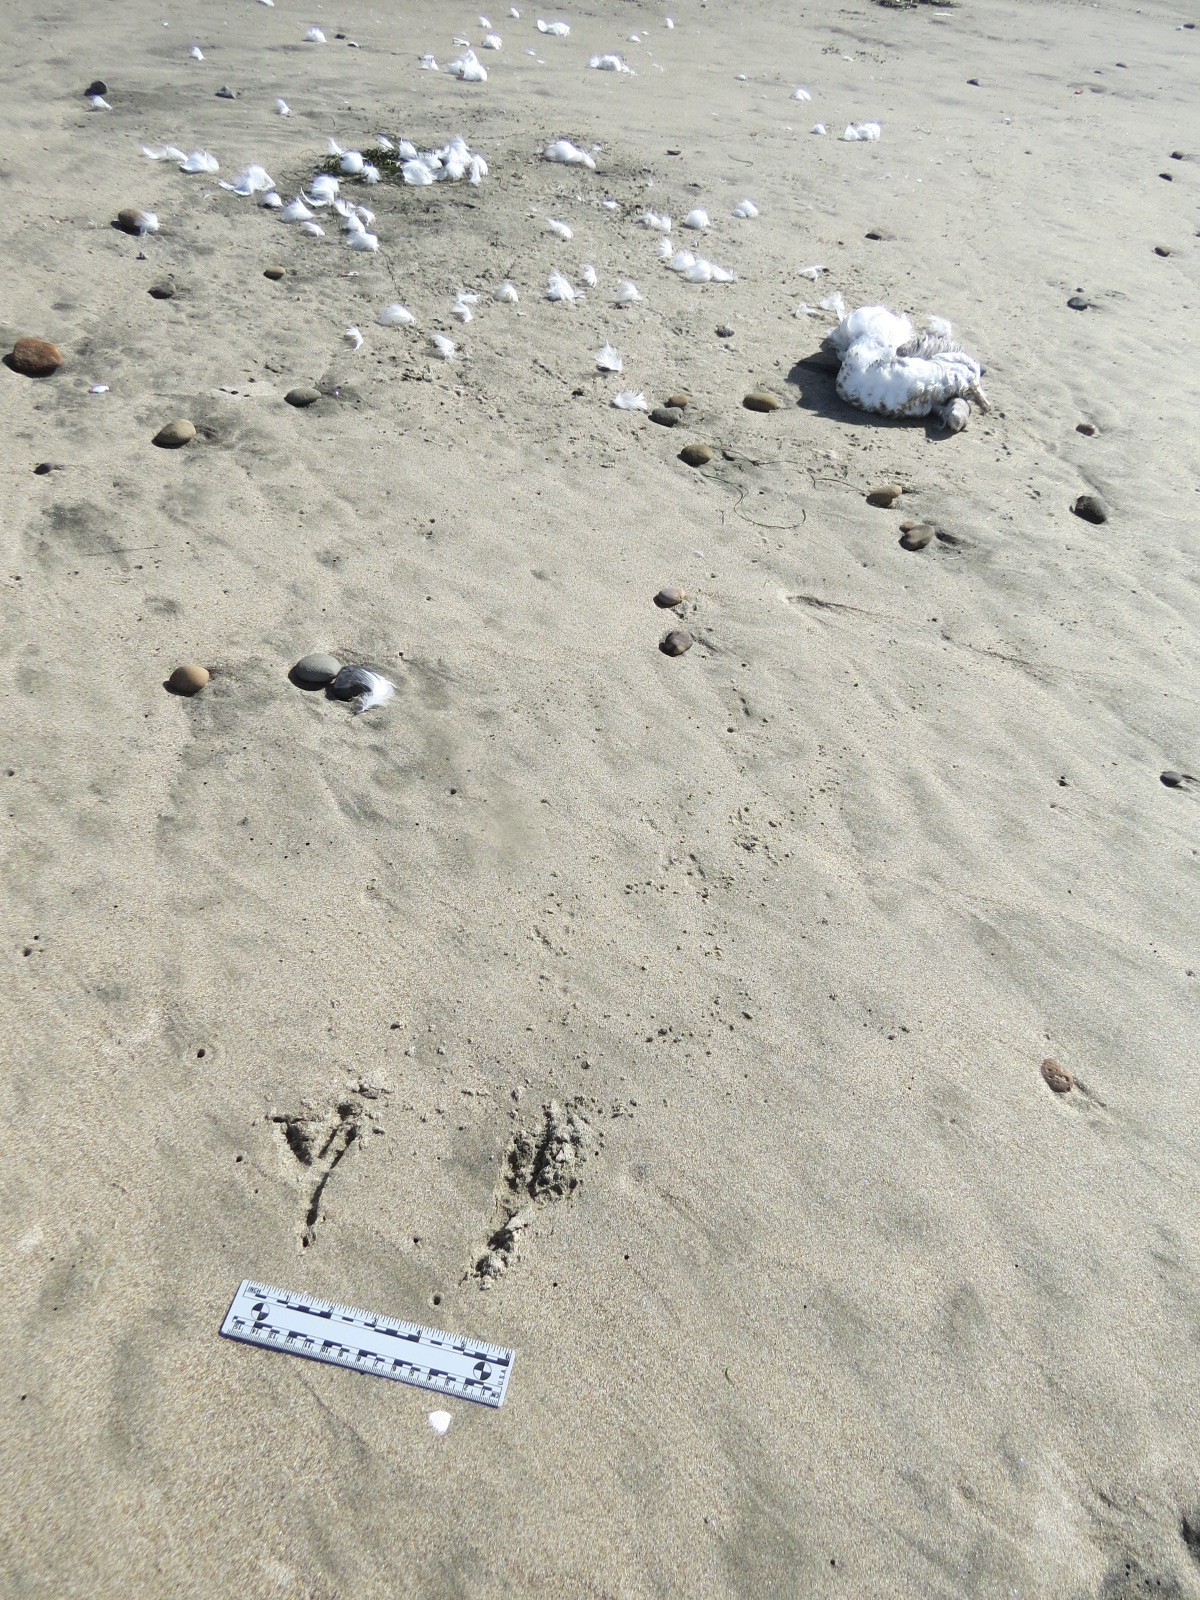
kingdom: Animalia
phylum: Chordata
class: Aves
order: Procellariiformes
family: Procellariidae
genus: Fulmarus
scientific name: Fulmarus glacialis
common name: Northern fulmar
